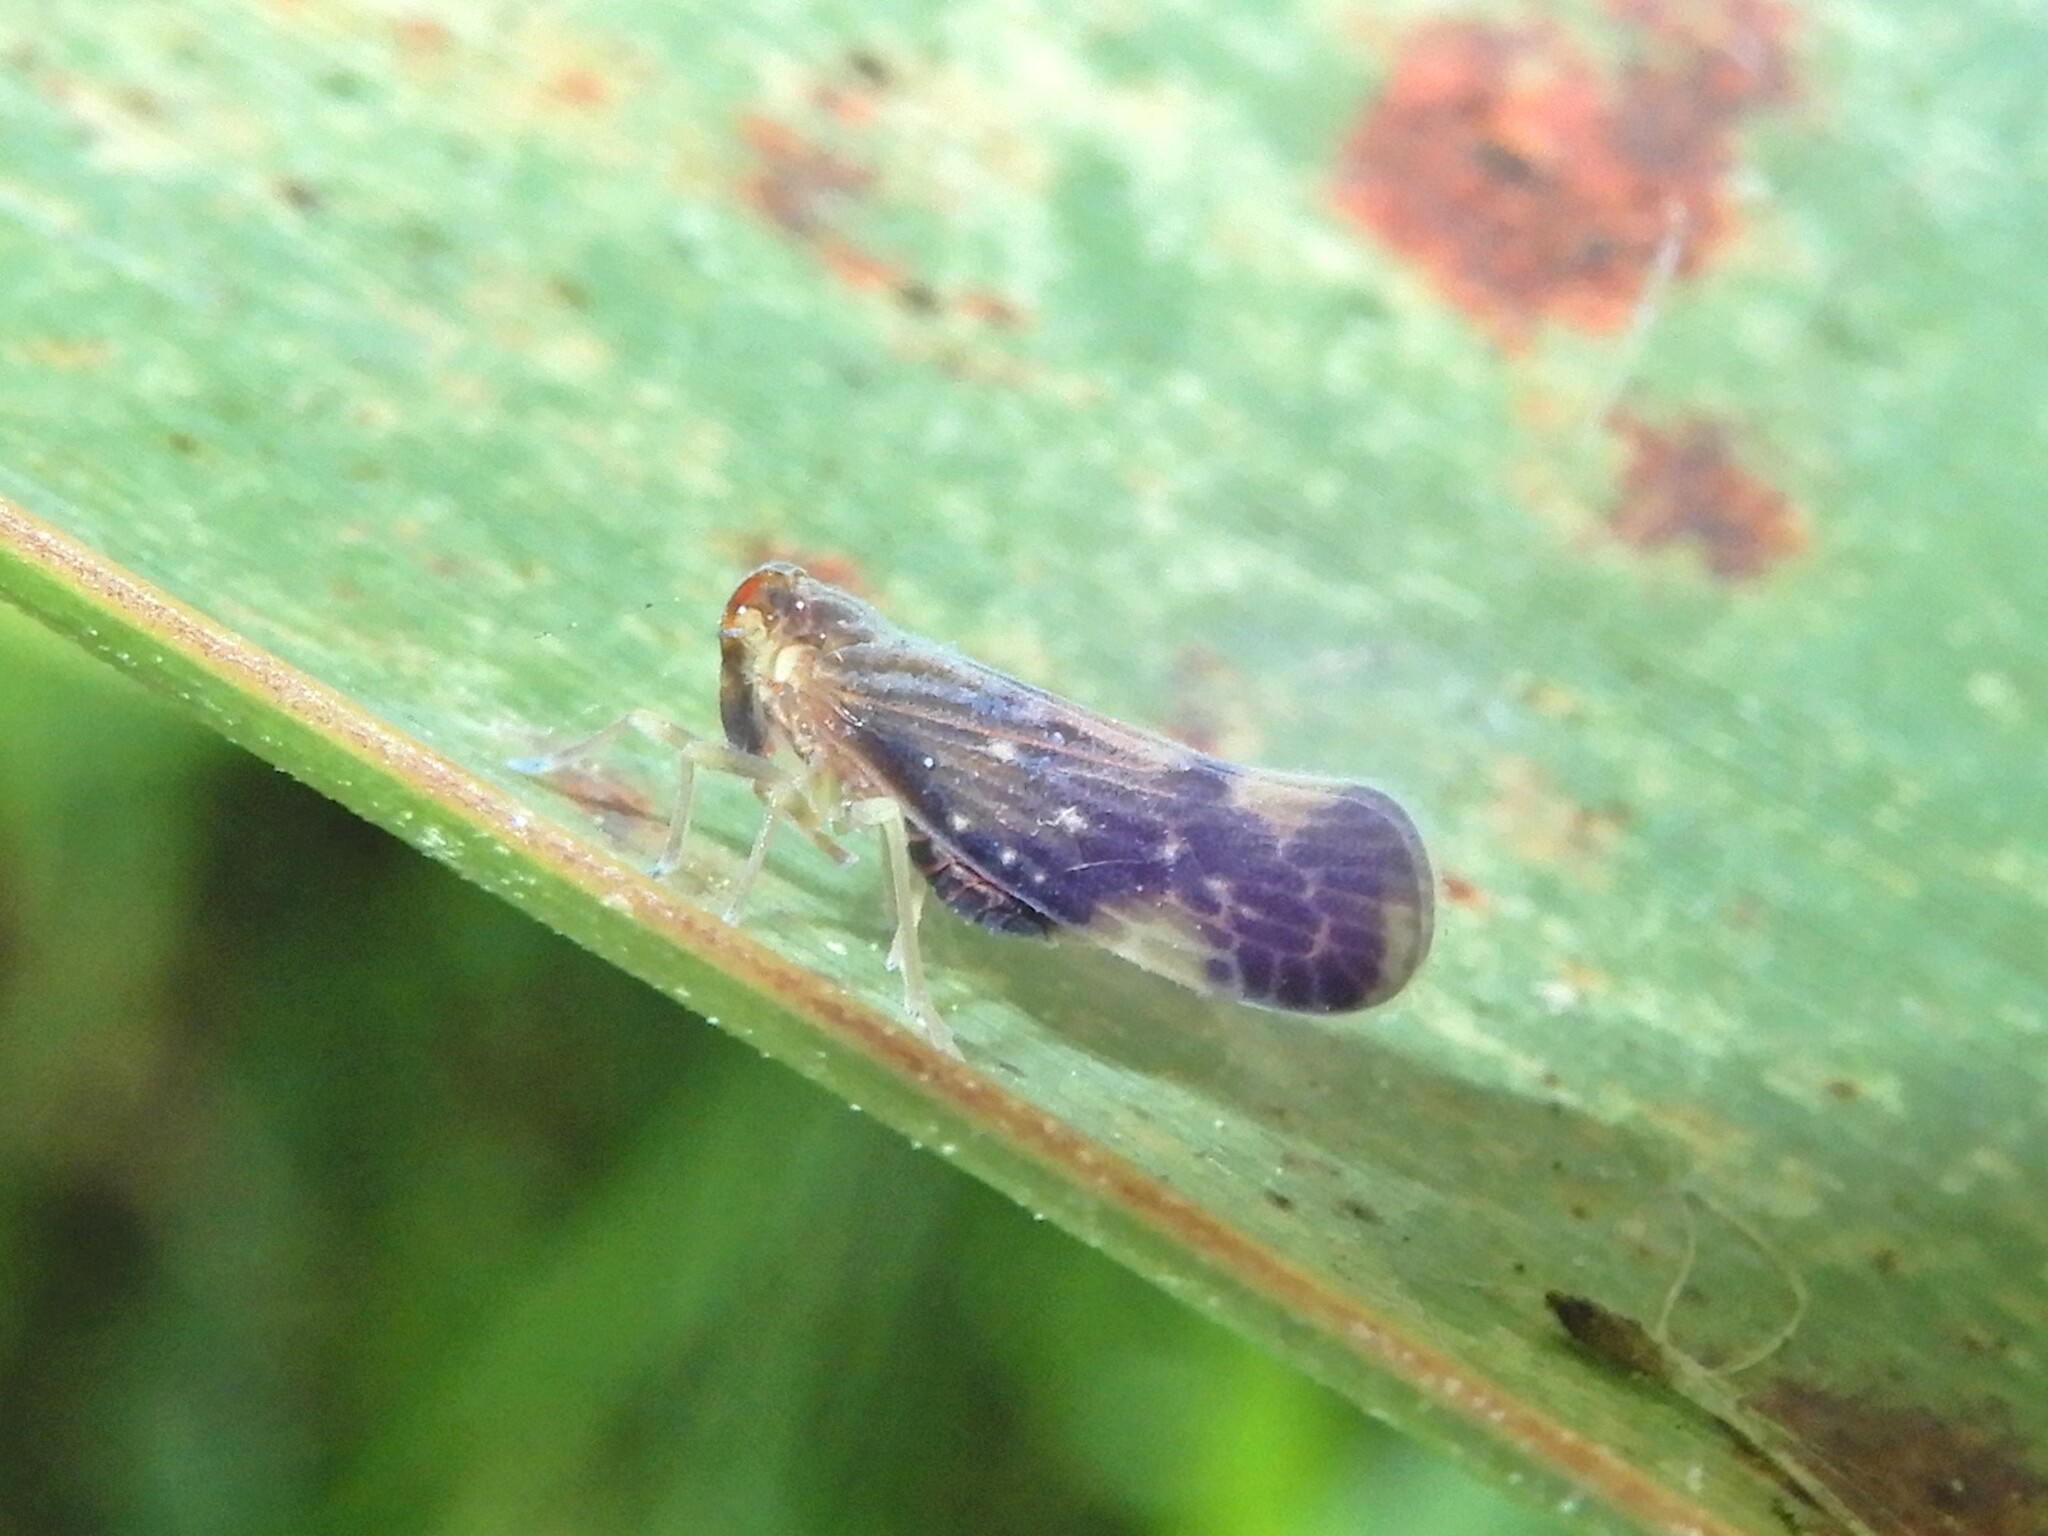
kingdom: Animalia
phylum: Arthropoda
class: Insecta
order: Hemiptera
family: Derbidae
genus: Eocenchrea
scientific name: Eocenchrea maorica
